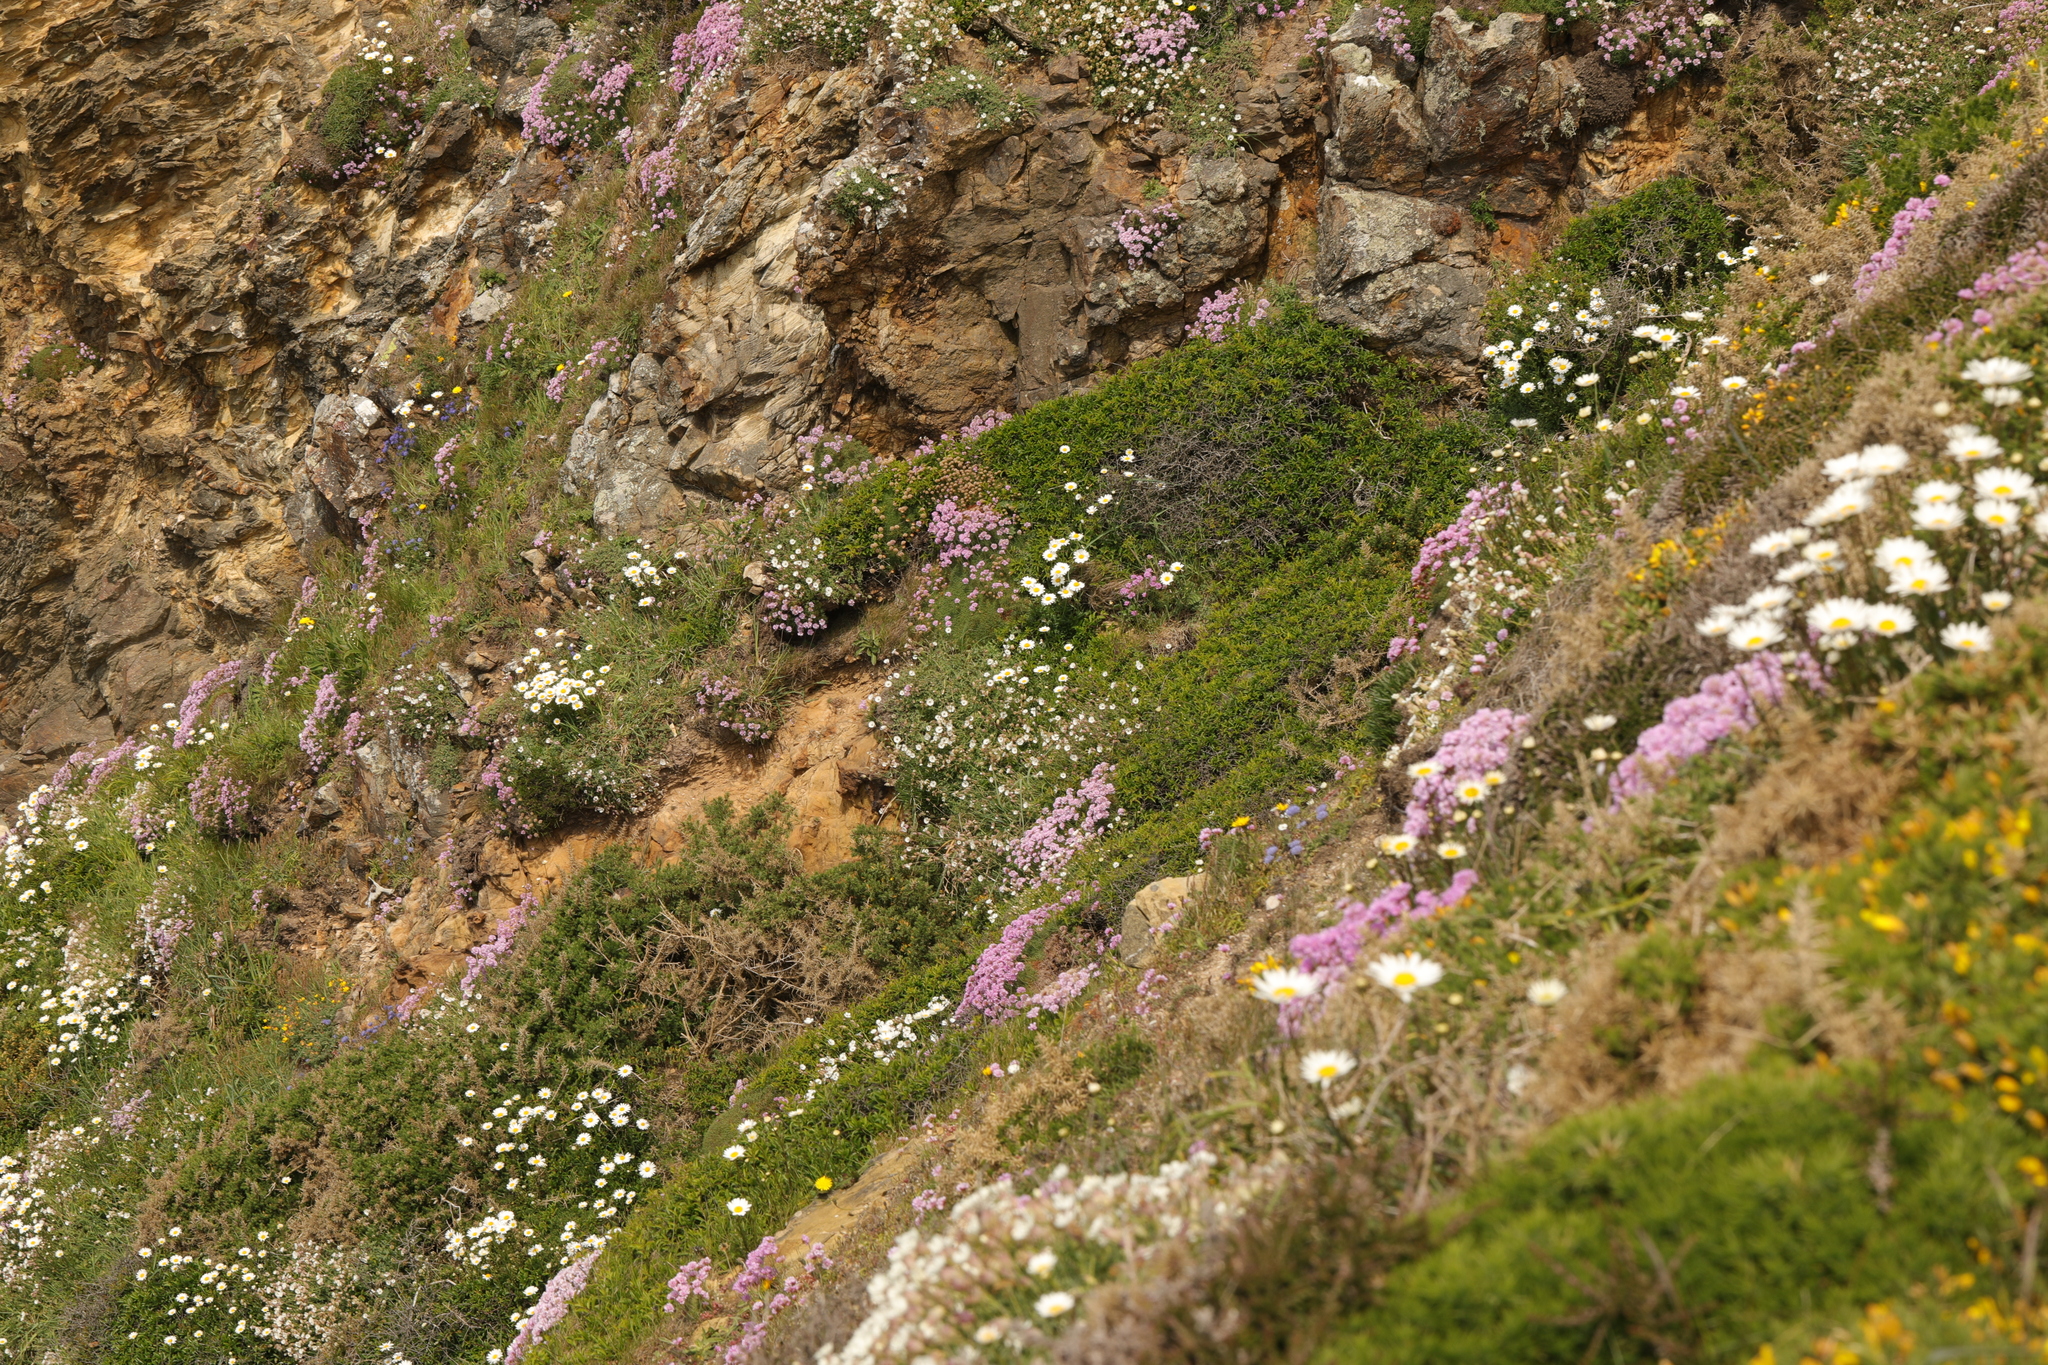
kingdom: Plantae
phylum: Tracheophyta
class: Magnoliopsida
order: Caryophyllales
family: Plumbaginaceae
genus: Armeria
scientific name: Armeria maritima
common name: Thrift
